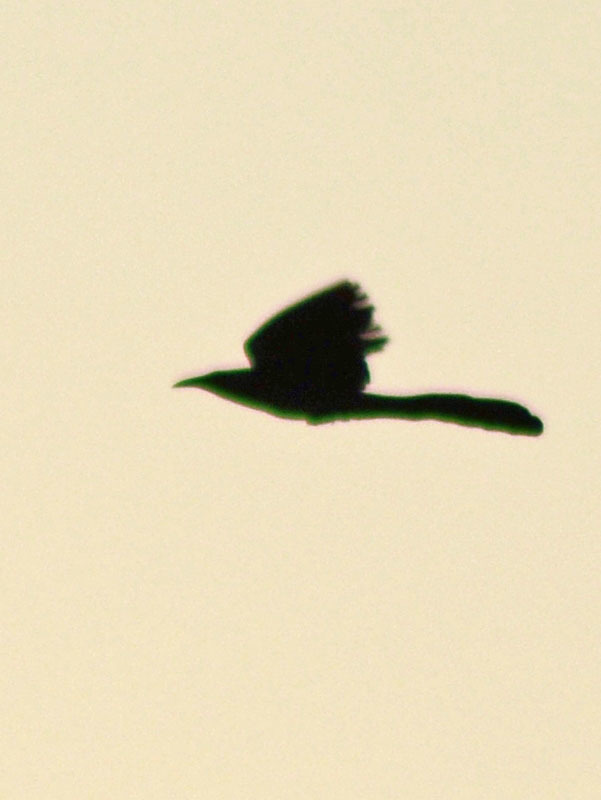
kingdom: Animalia
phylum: Chordata
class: Aves
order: Passeriformes
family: Icteridae
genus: Quiscalus
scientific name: Quiscalus mexicanus
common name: Great-tailed grackle
